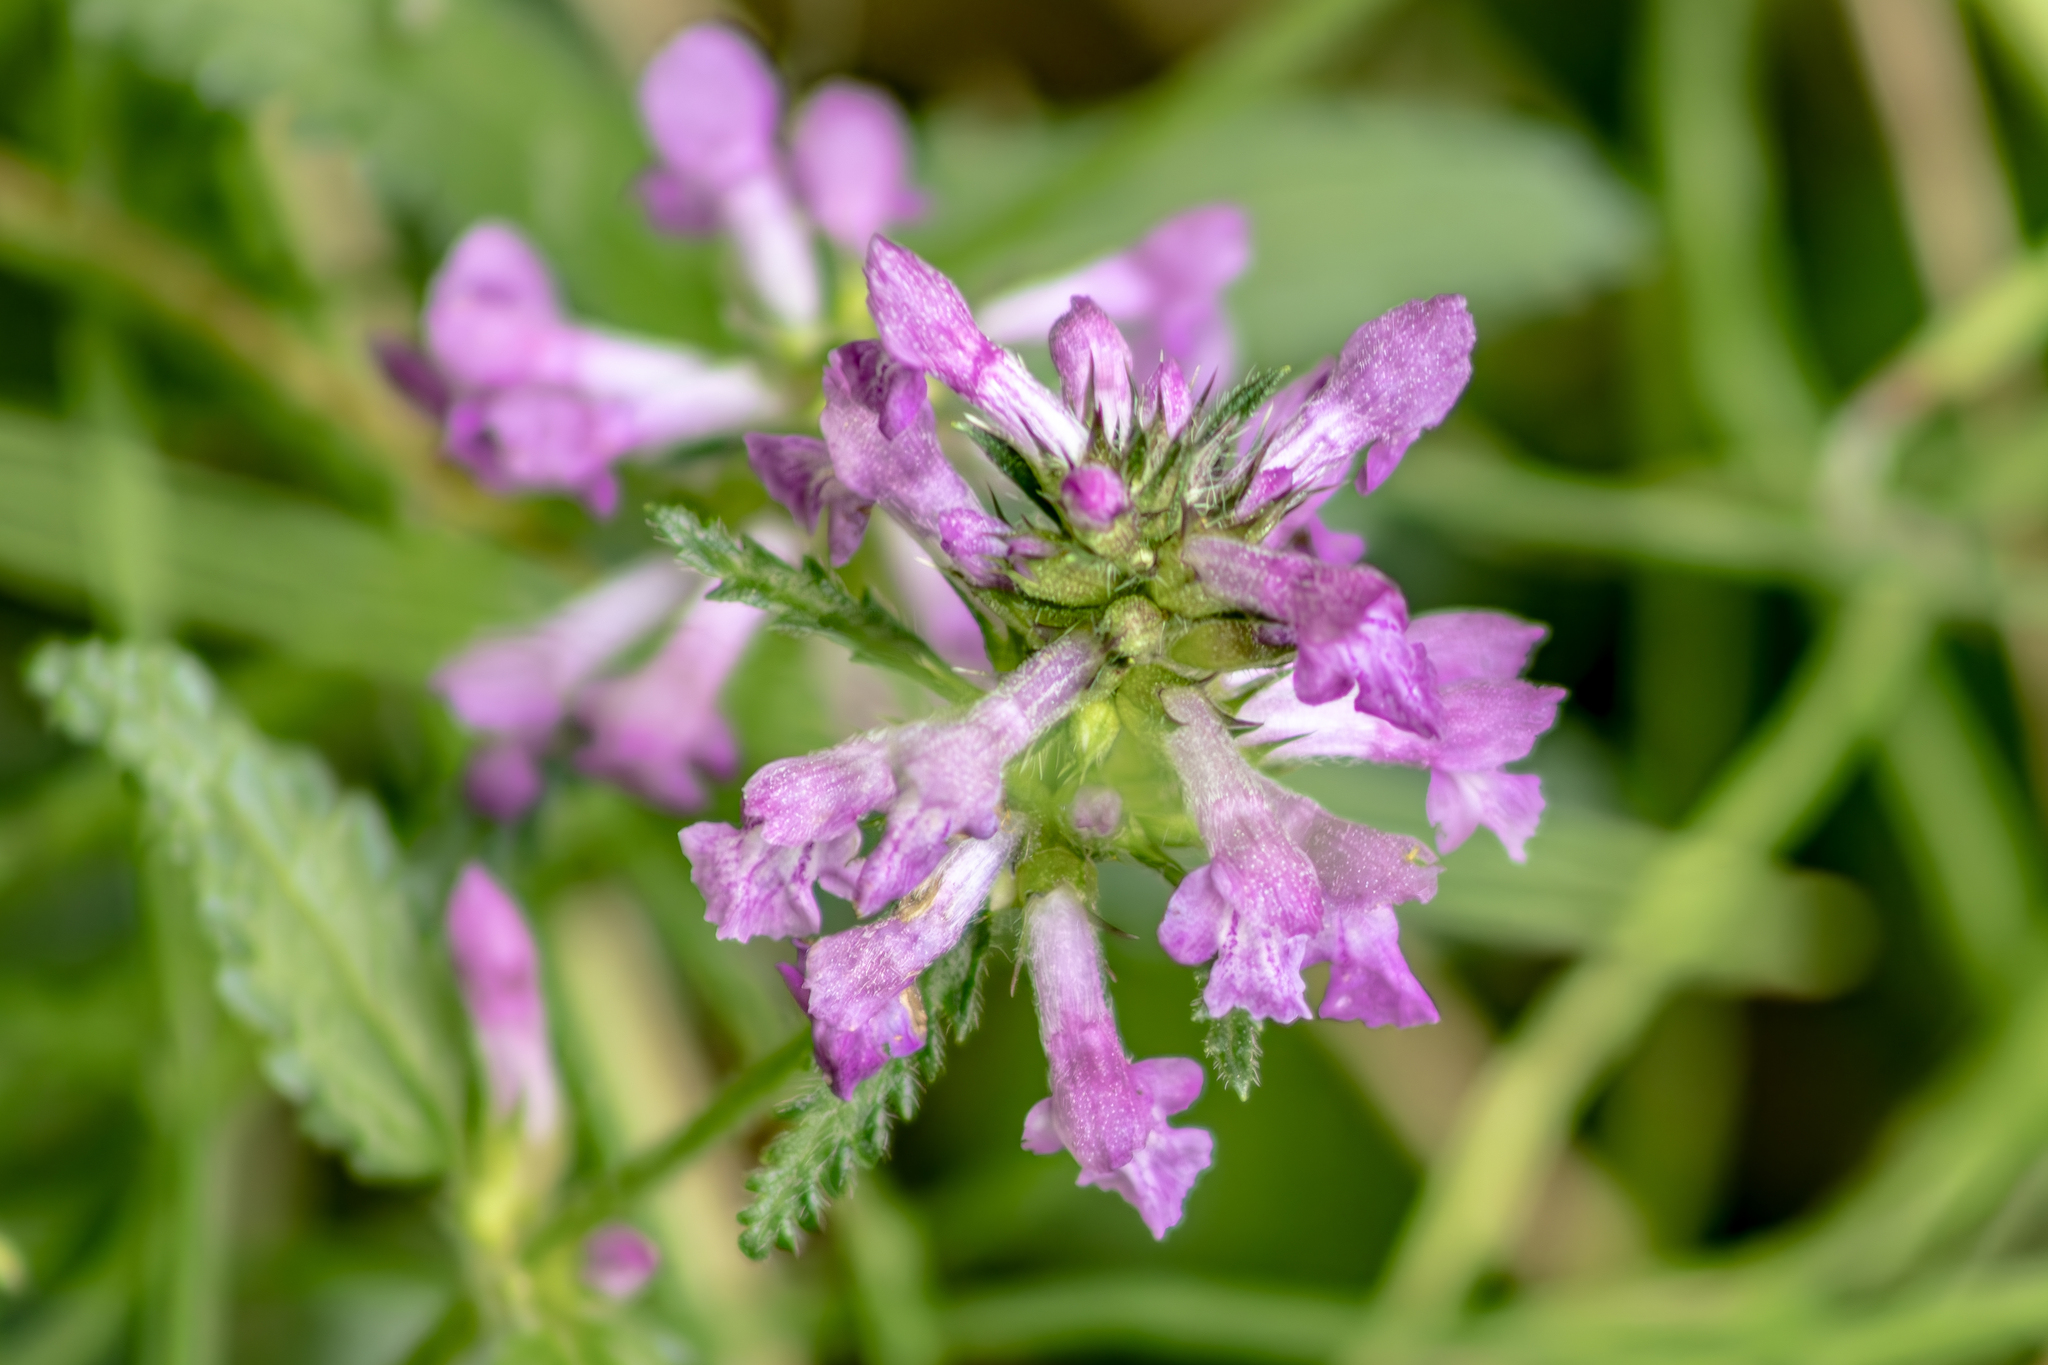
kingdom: Plantae
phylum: Tracheophyta
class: Magnoliopsida
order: Lamiales
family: Lamiaceae
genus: Betonica
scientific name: Betonica officinalis
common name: Bishop's-wort
